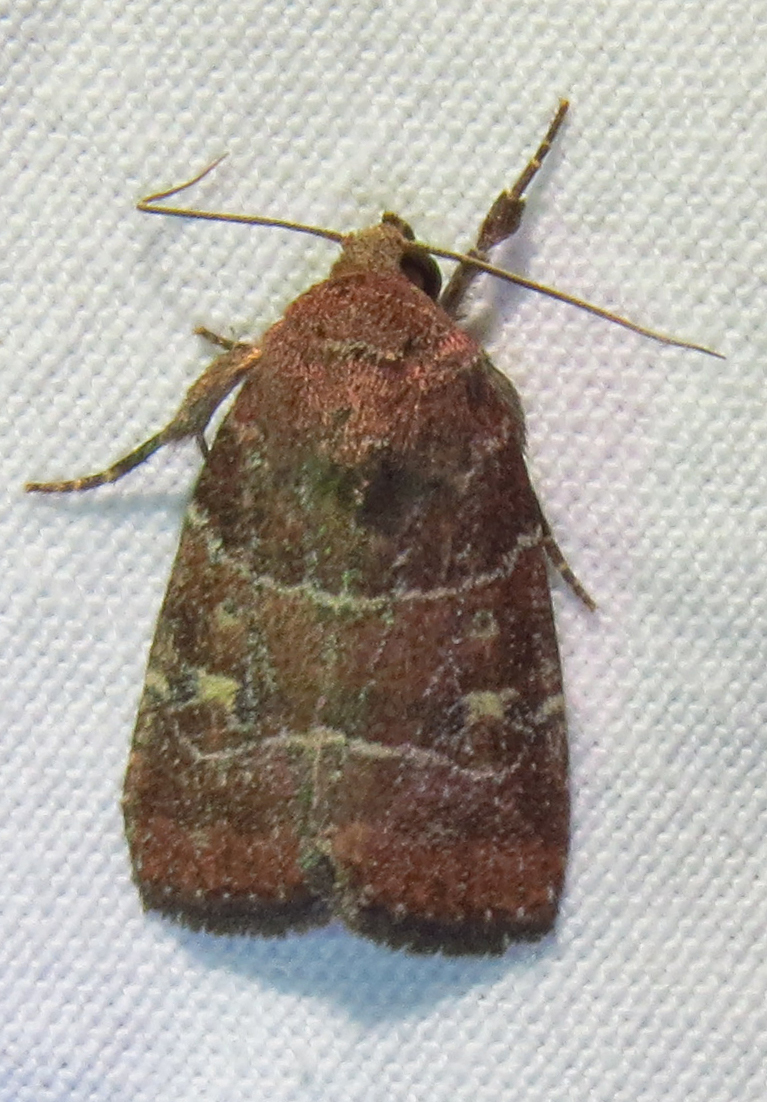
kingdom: Animalia
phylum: Arthropoda
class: Insecta
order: Lepidoptera
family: Noctuidae
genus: Elaphria
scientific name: Elaphria grata
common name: Grateful midget moth
